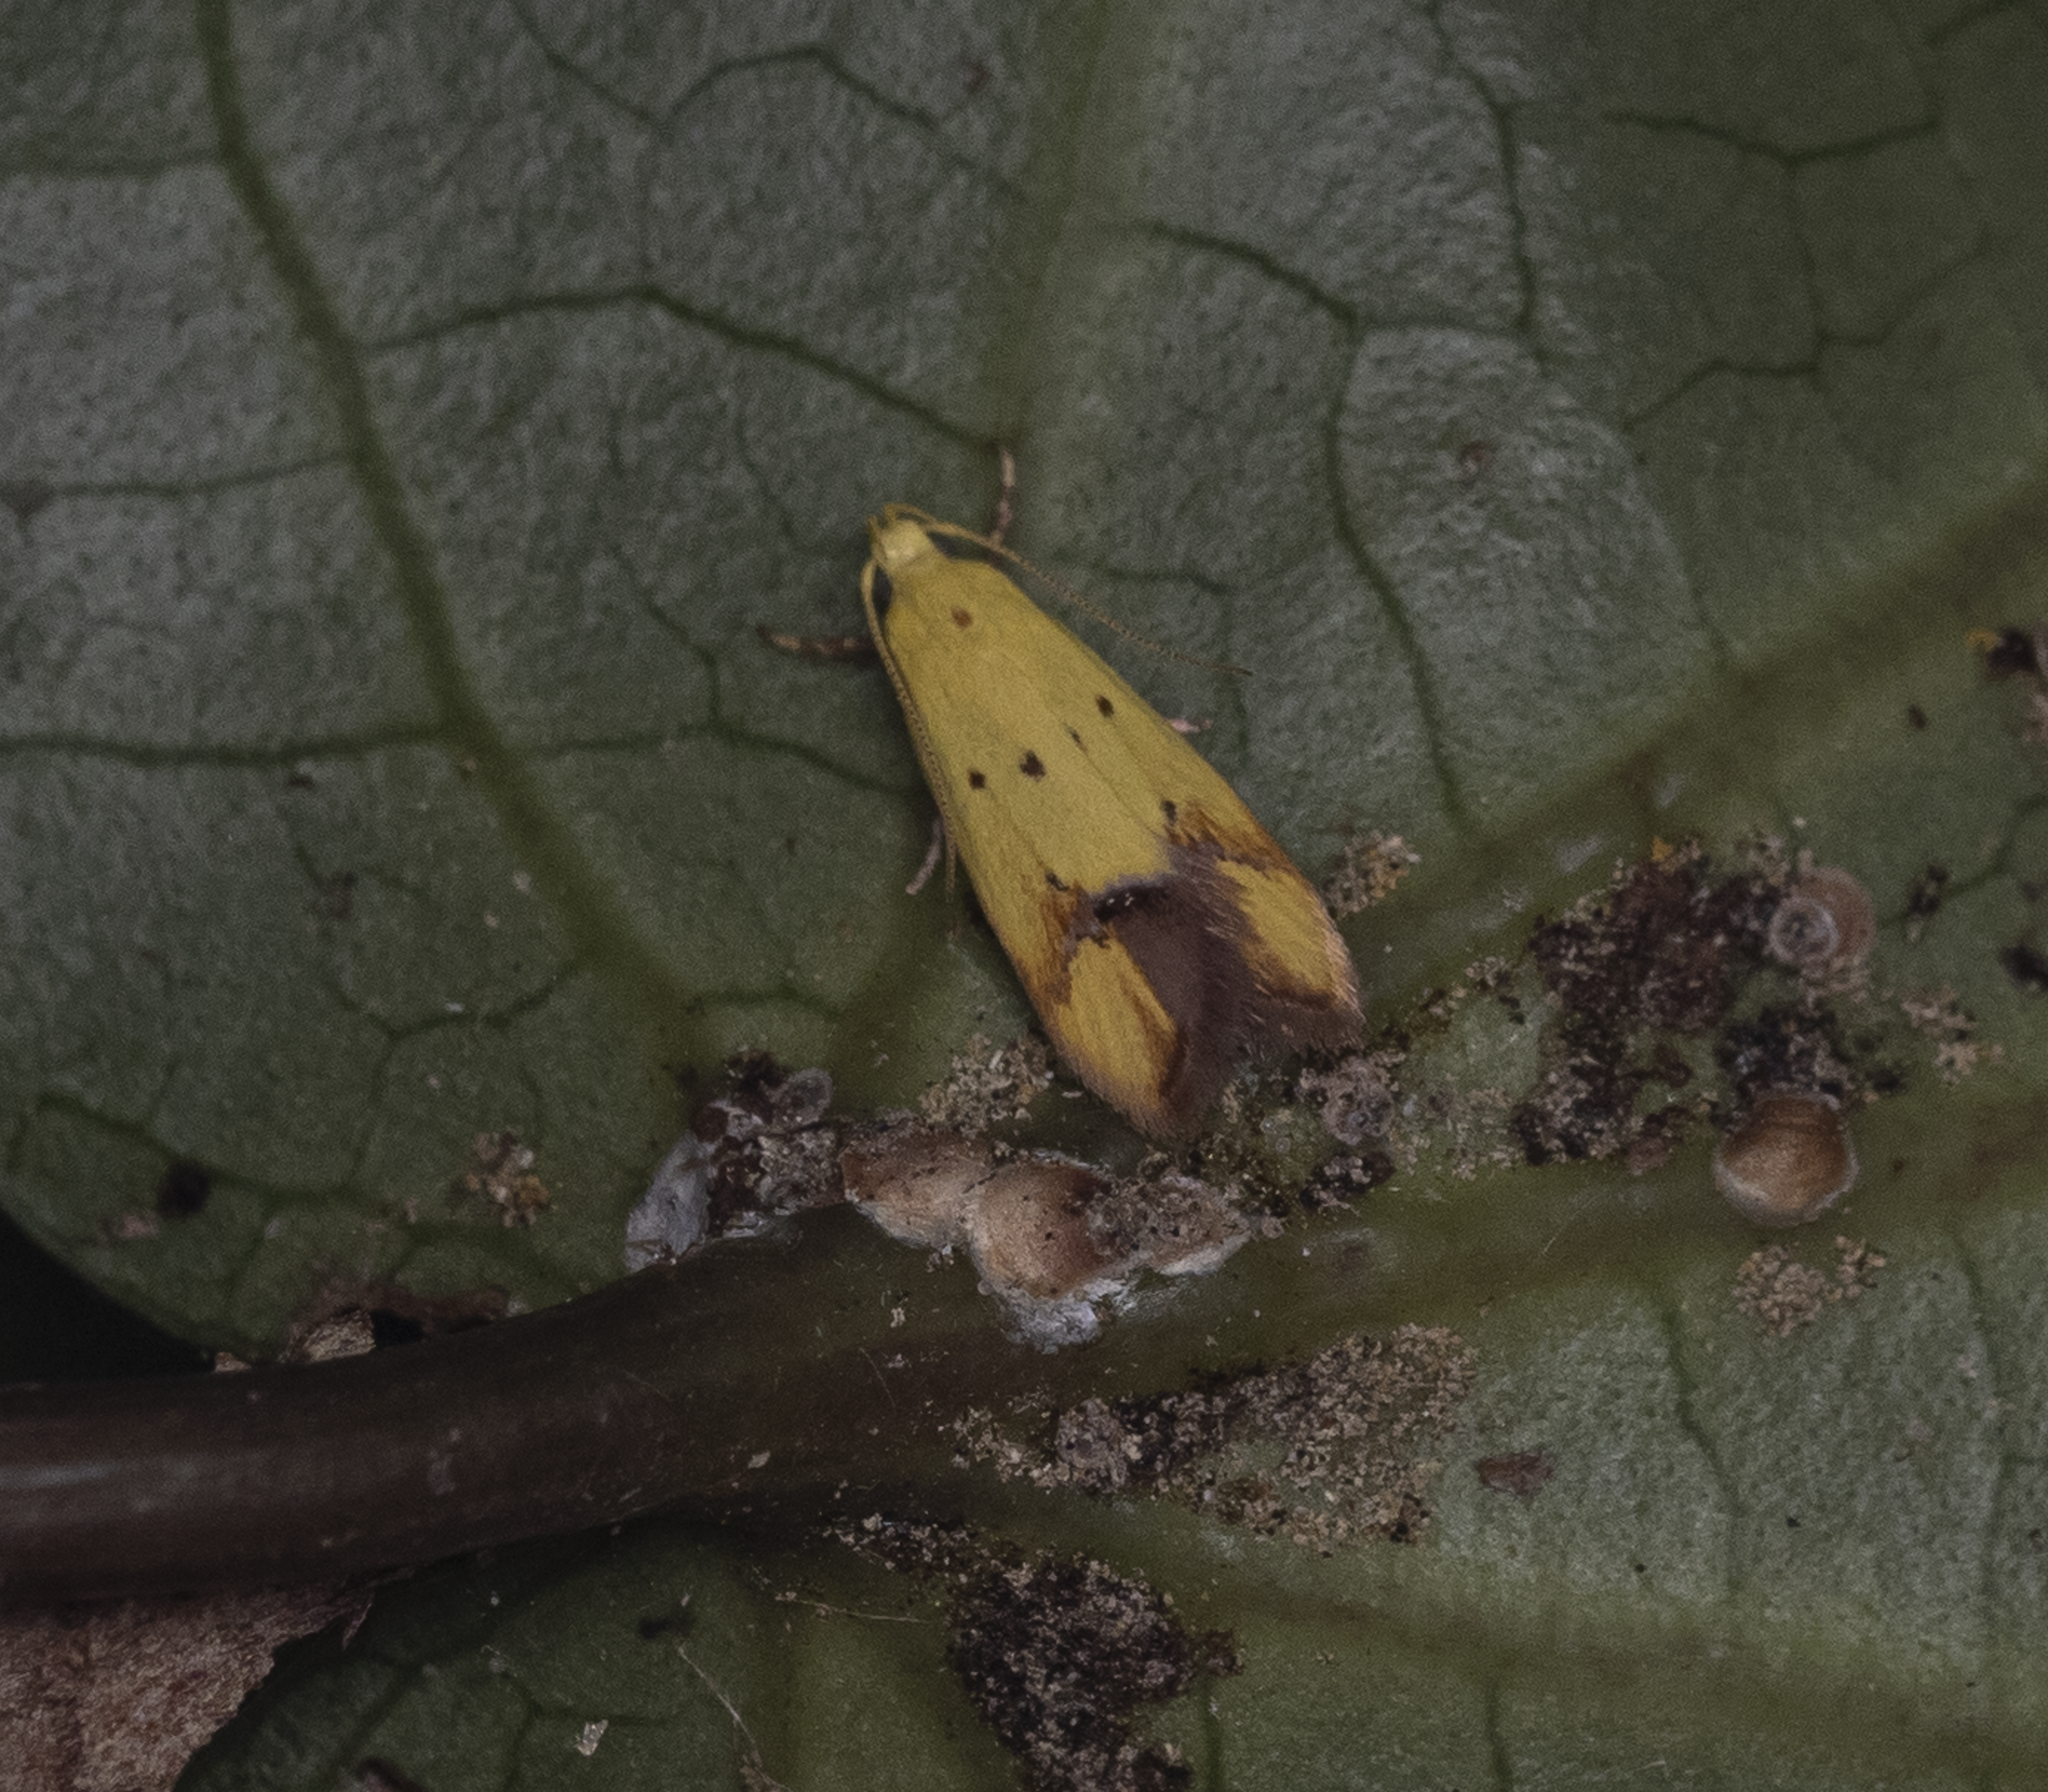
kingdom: Animalia
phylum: Arthropoda
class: Insecta
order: Lepidoptera
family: Oecophoridae
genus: Gymnobathra
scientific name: Gymnobathra flavidella
